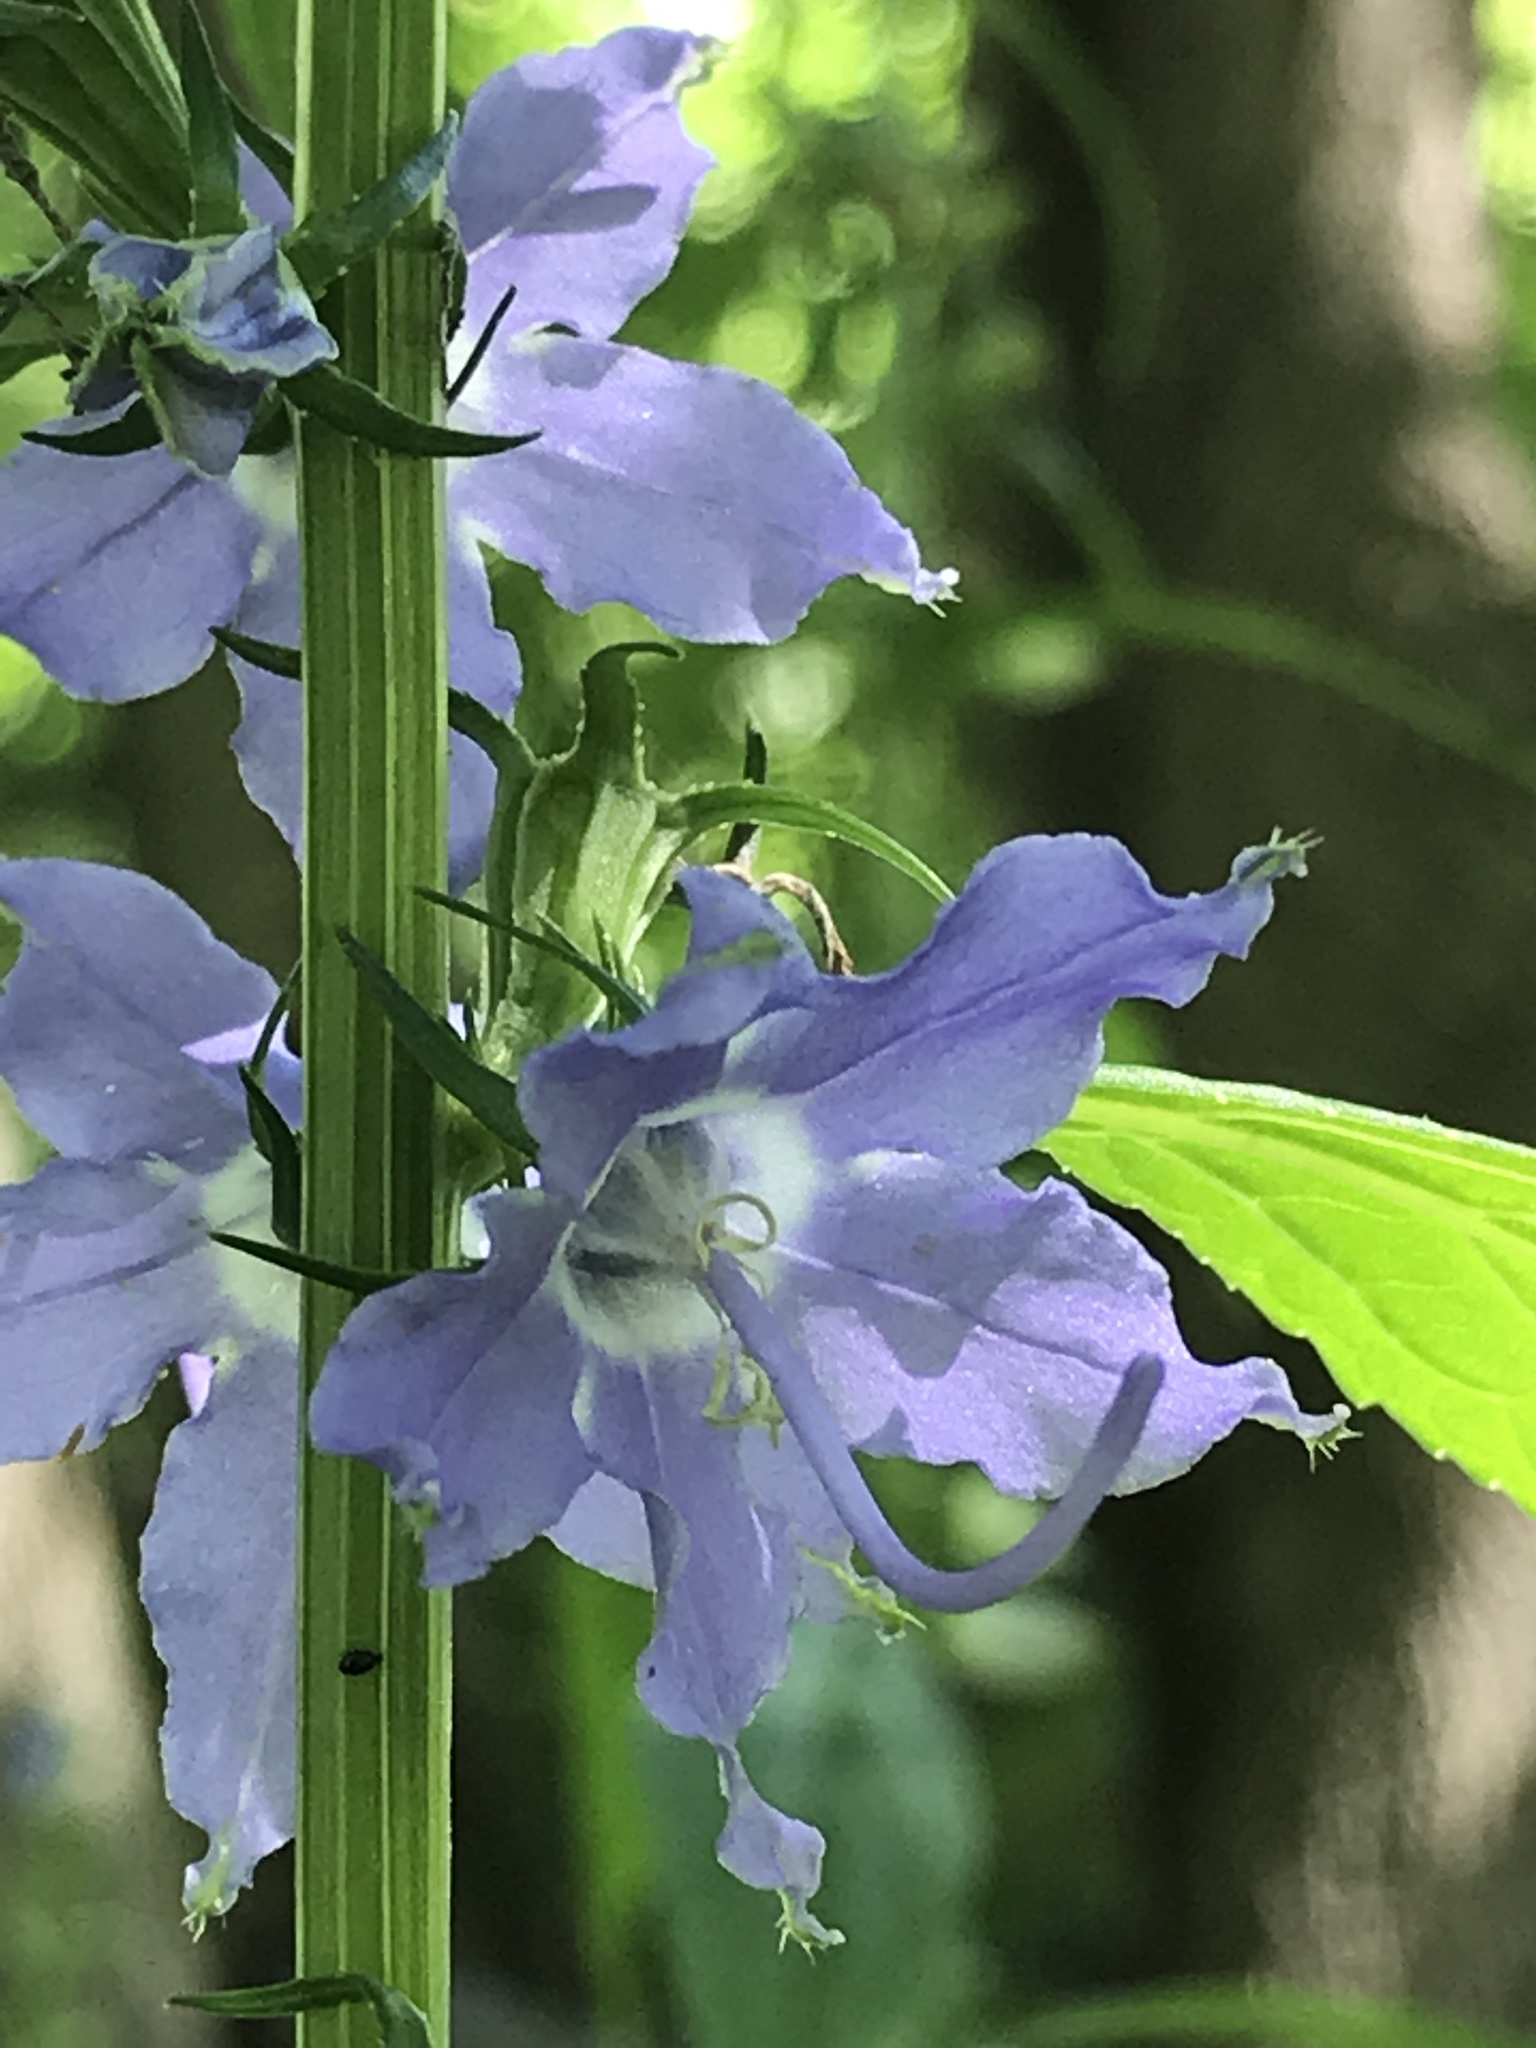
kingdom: Plantae
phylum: Tracheophyta
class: Magnoliopsida
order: Asterales
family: Campanulaceae
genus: Campanulastrum
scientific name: Campanulastrum americanum
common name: American bellflower
